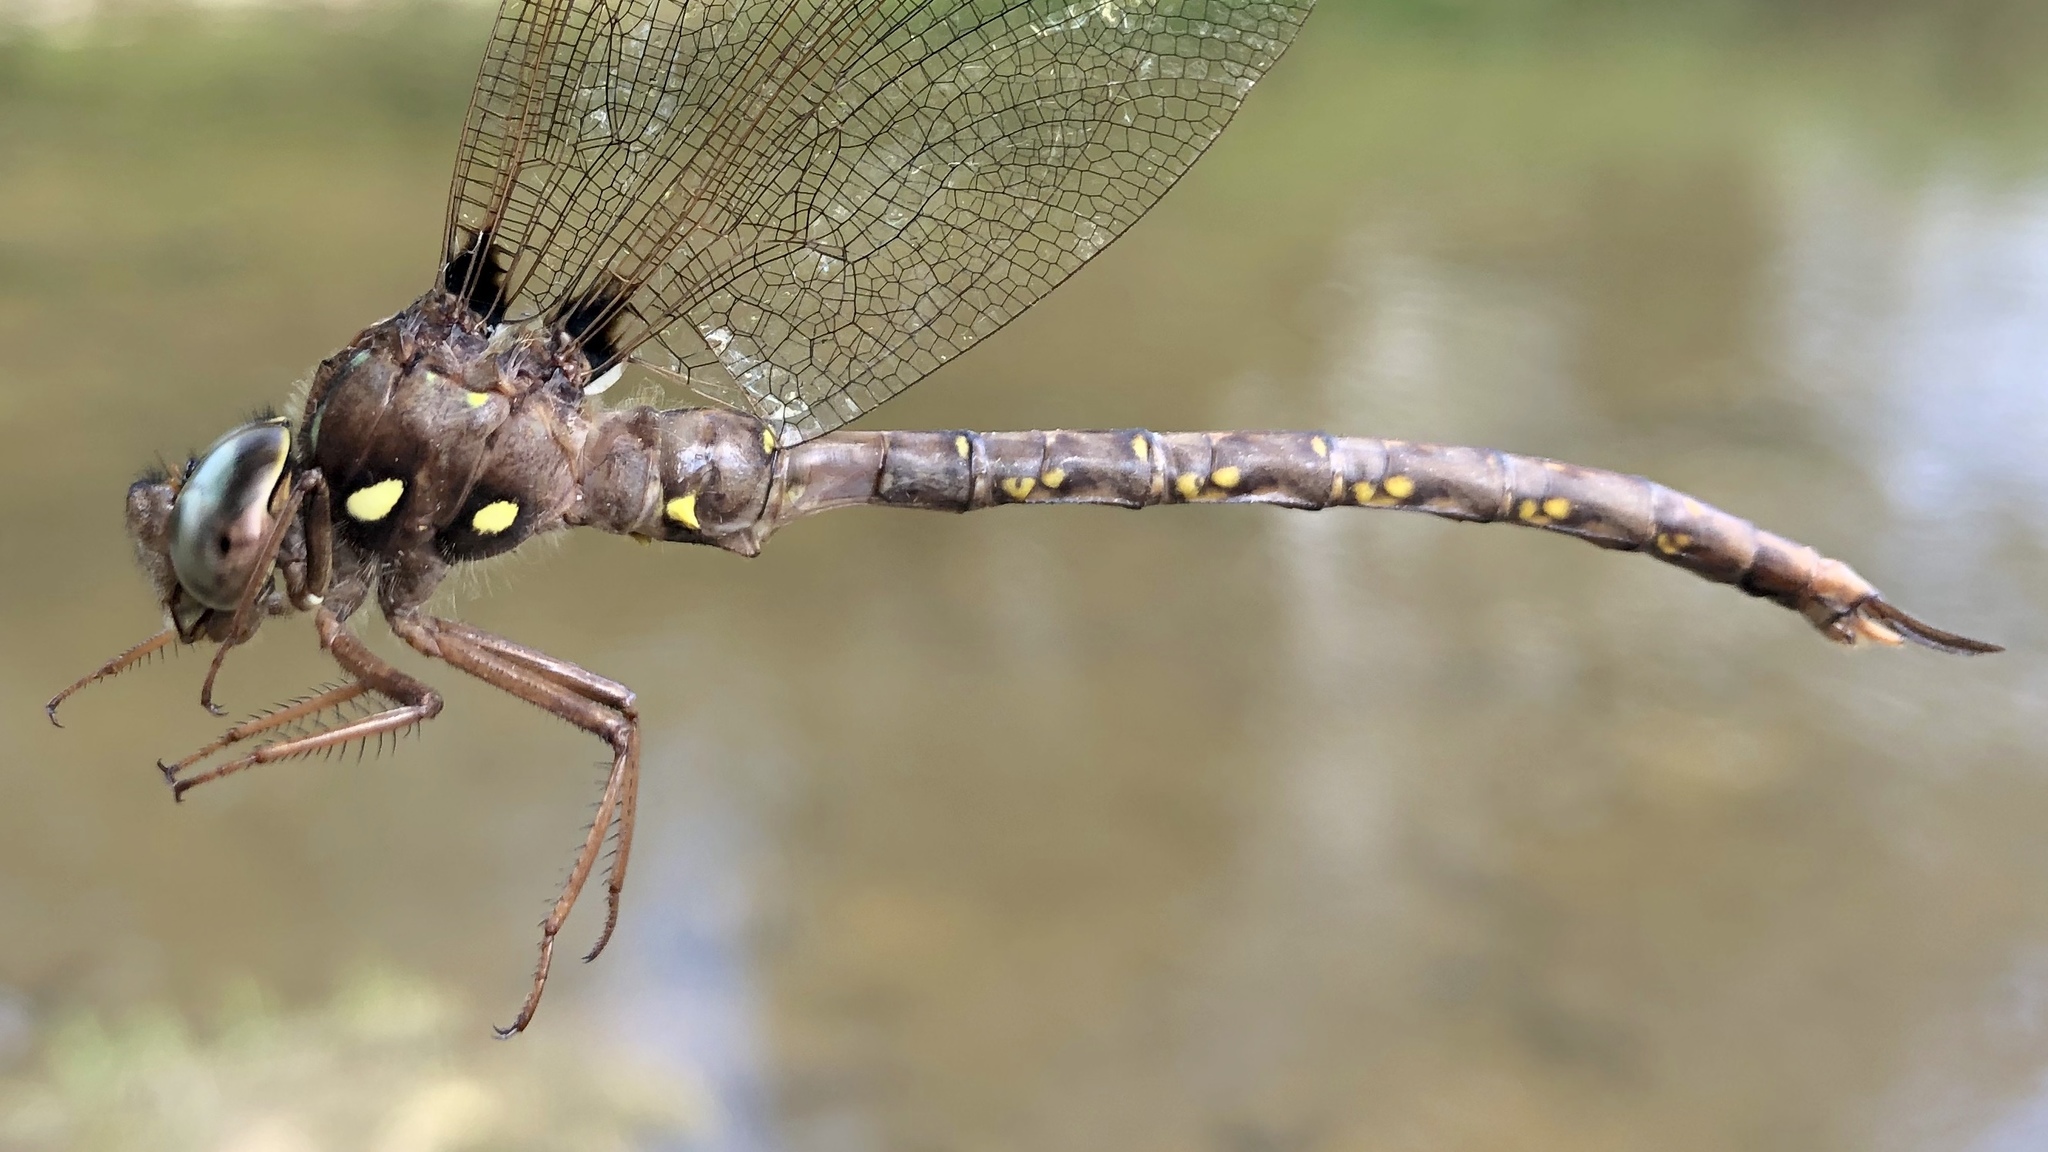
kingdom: Animalia
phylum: Arthropoda
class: Insecta
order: Odonata
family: Aeshnidae
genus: Boyeria
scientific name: Boyeria vinosa
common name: Fawn darner
